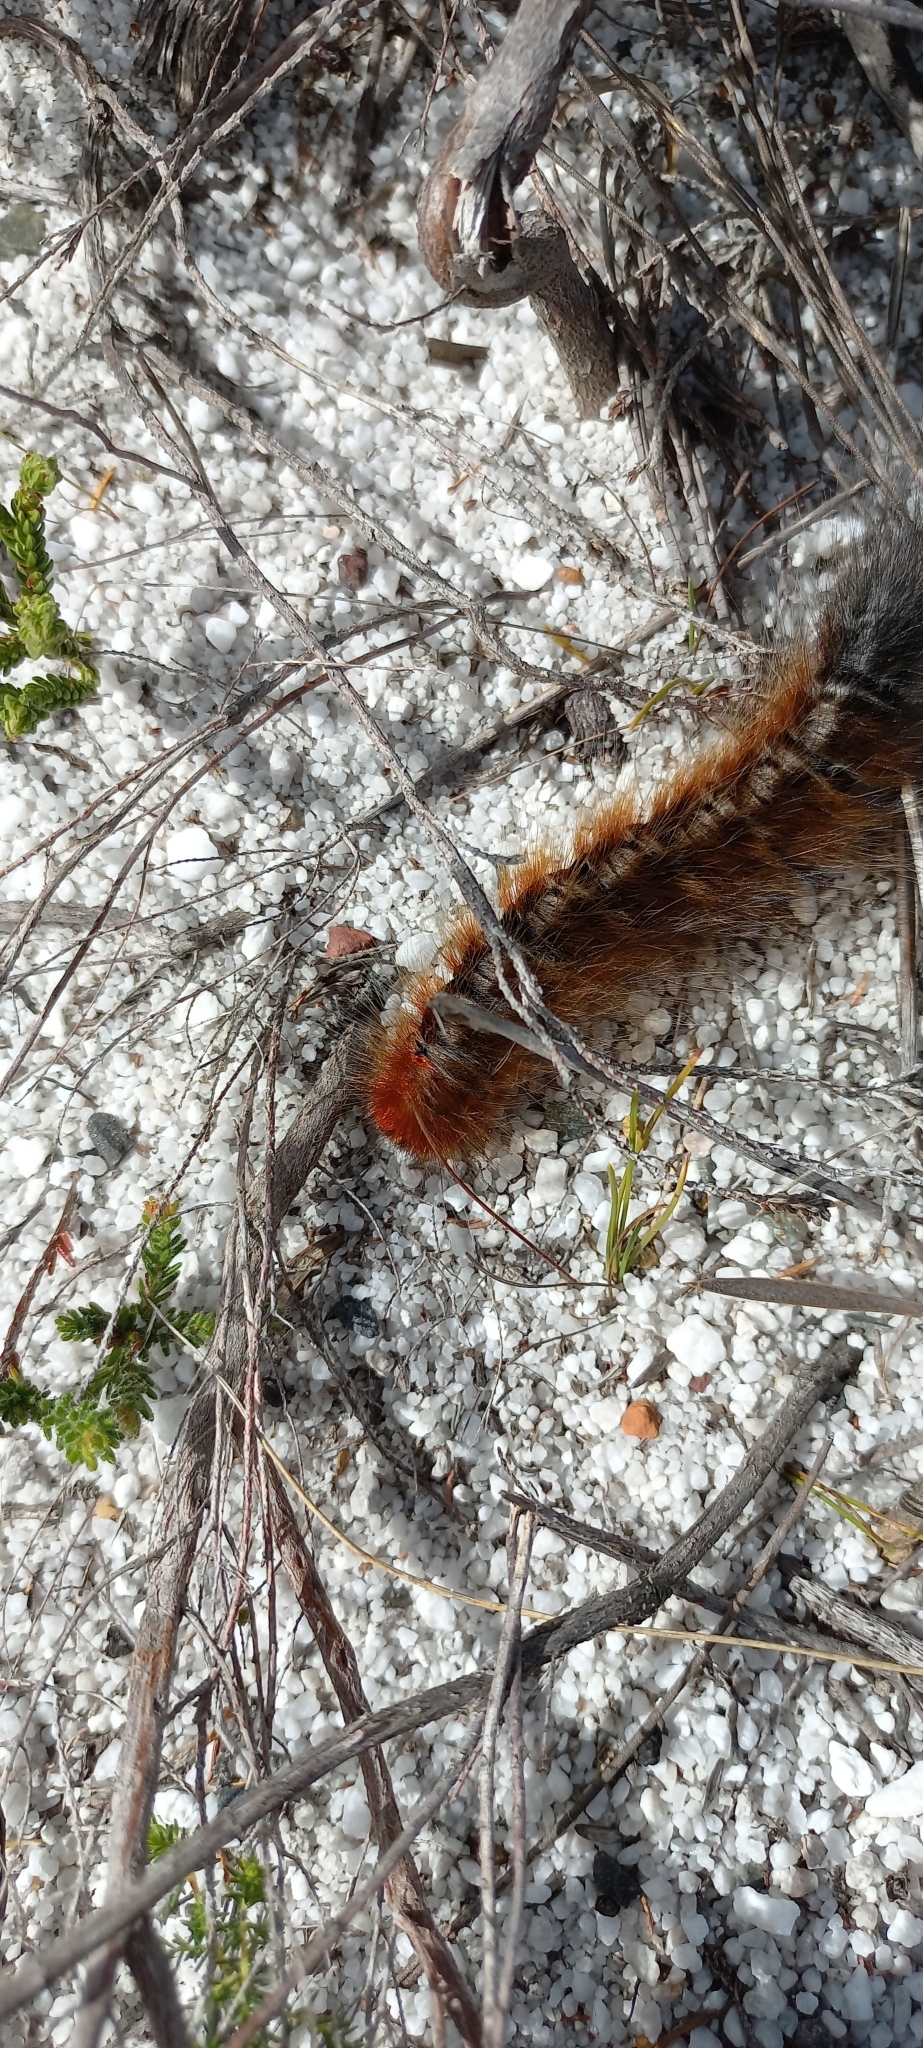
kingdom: Animalia
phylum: Arthropoda
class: Insecta
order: Lepidoptera
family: Lasiocampidae
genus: Mesocelis
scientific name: Mesocelis monticola
